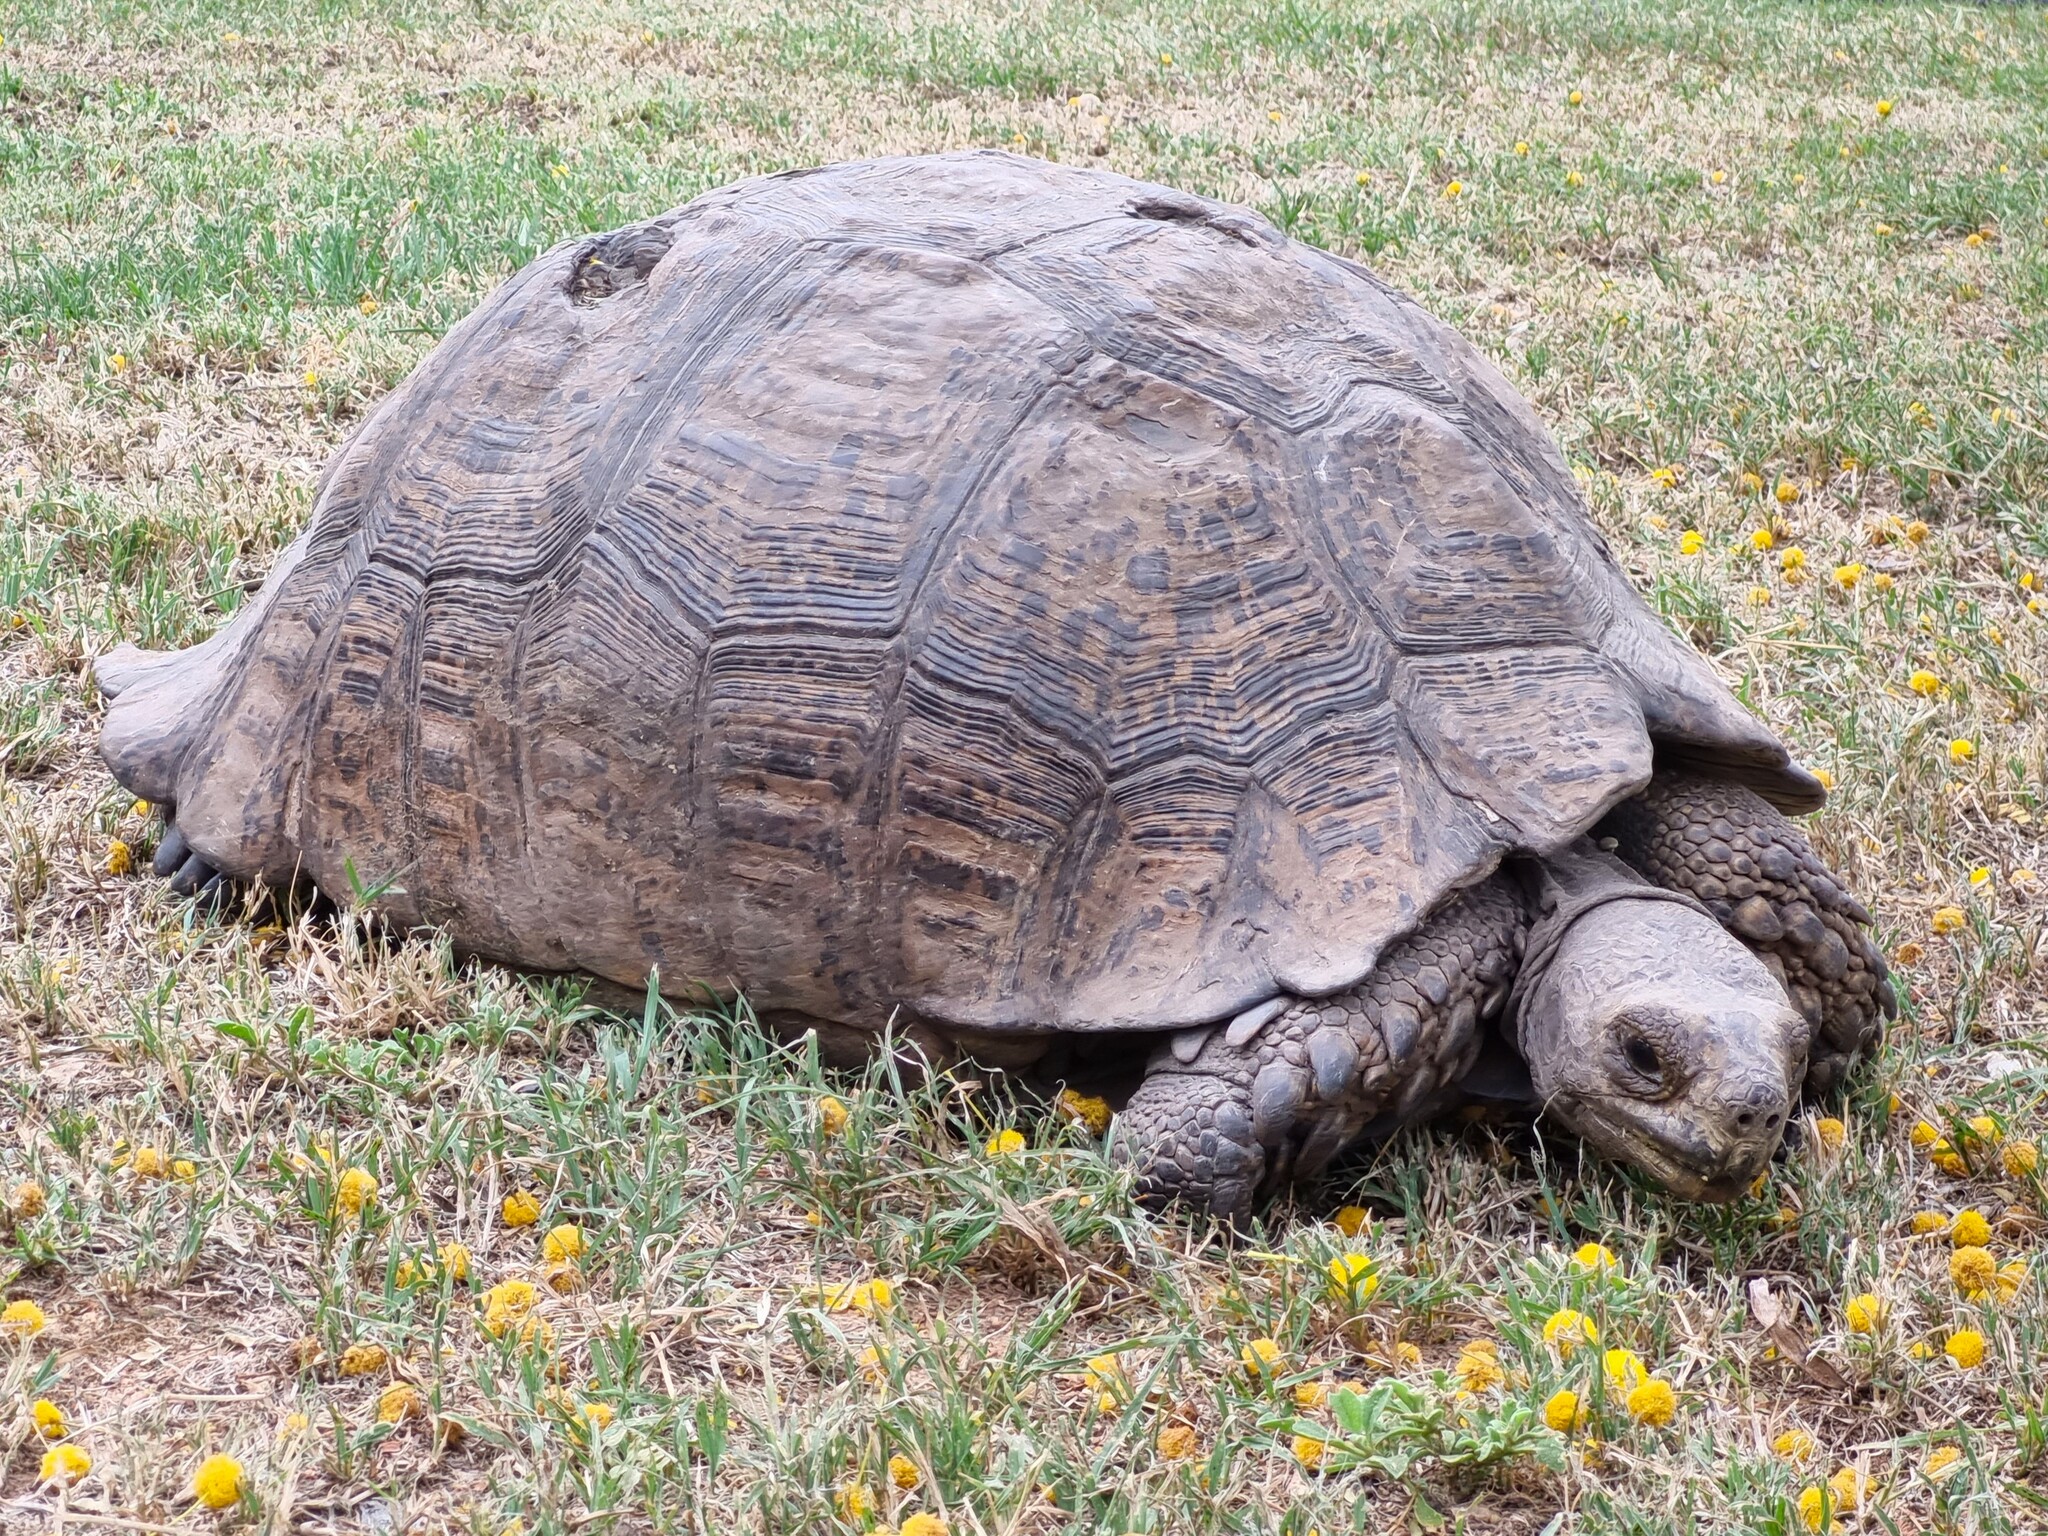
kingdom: Animalia
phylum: Chordata
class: Testudines
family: Testudinidae
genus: Stigmochelys
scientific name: Stigmochelys pardalis
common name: Leopard tortoise
